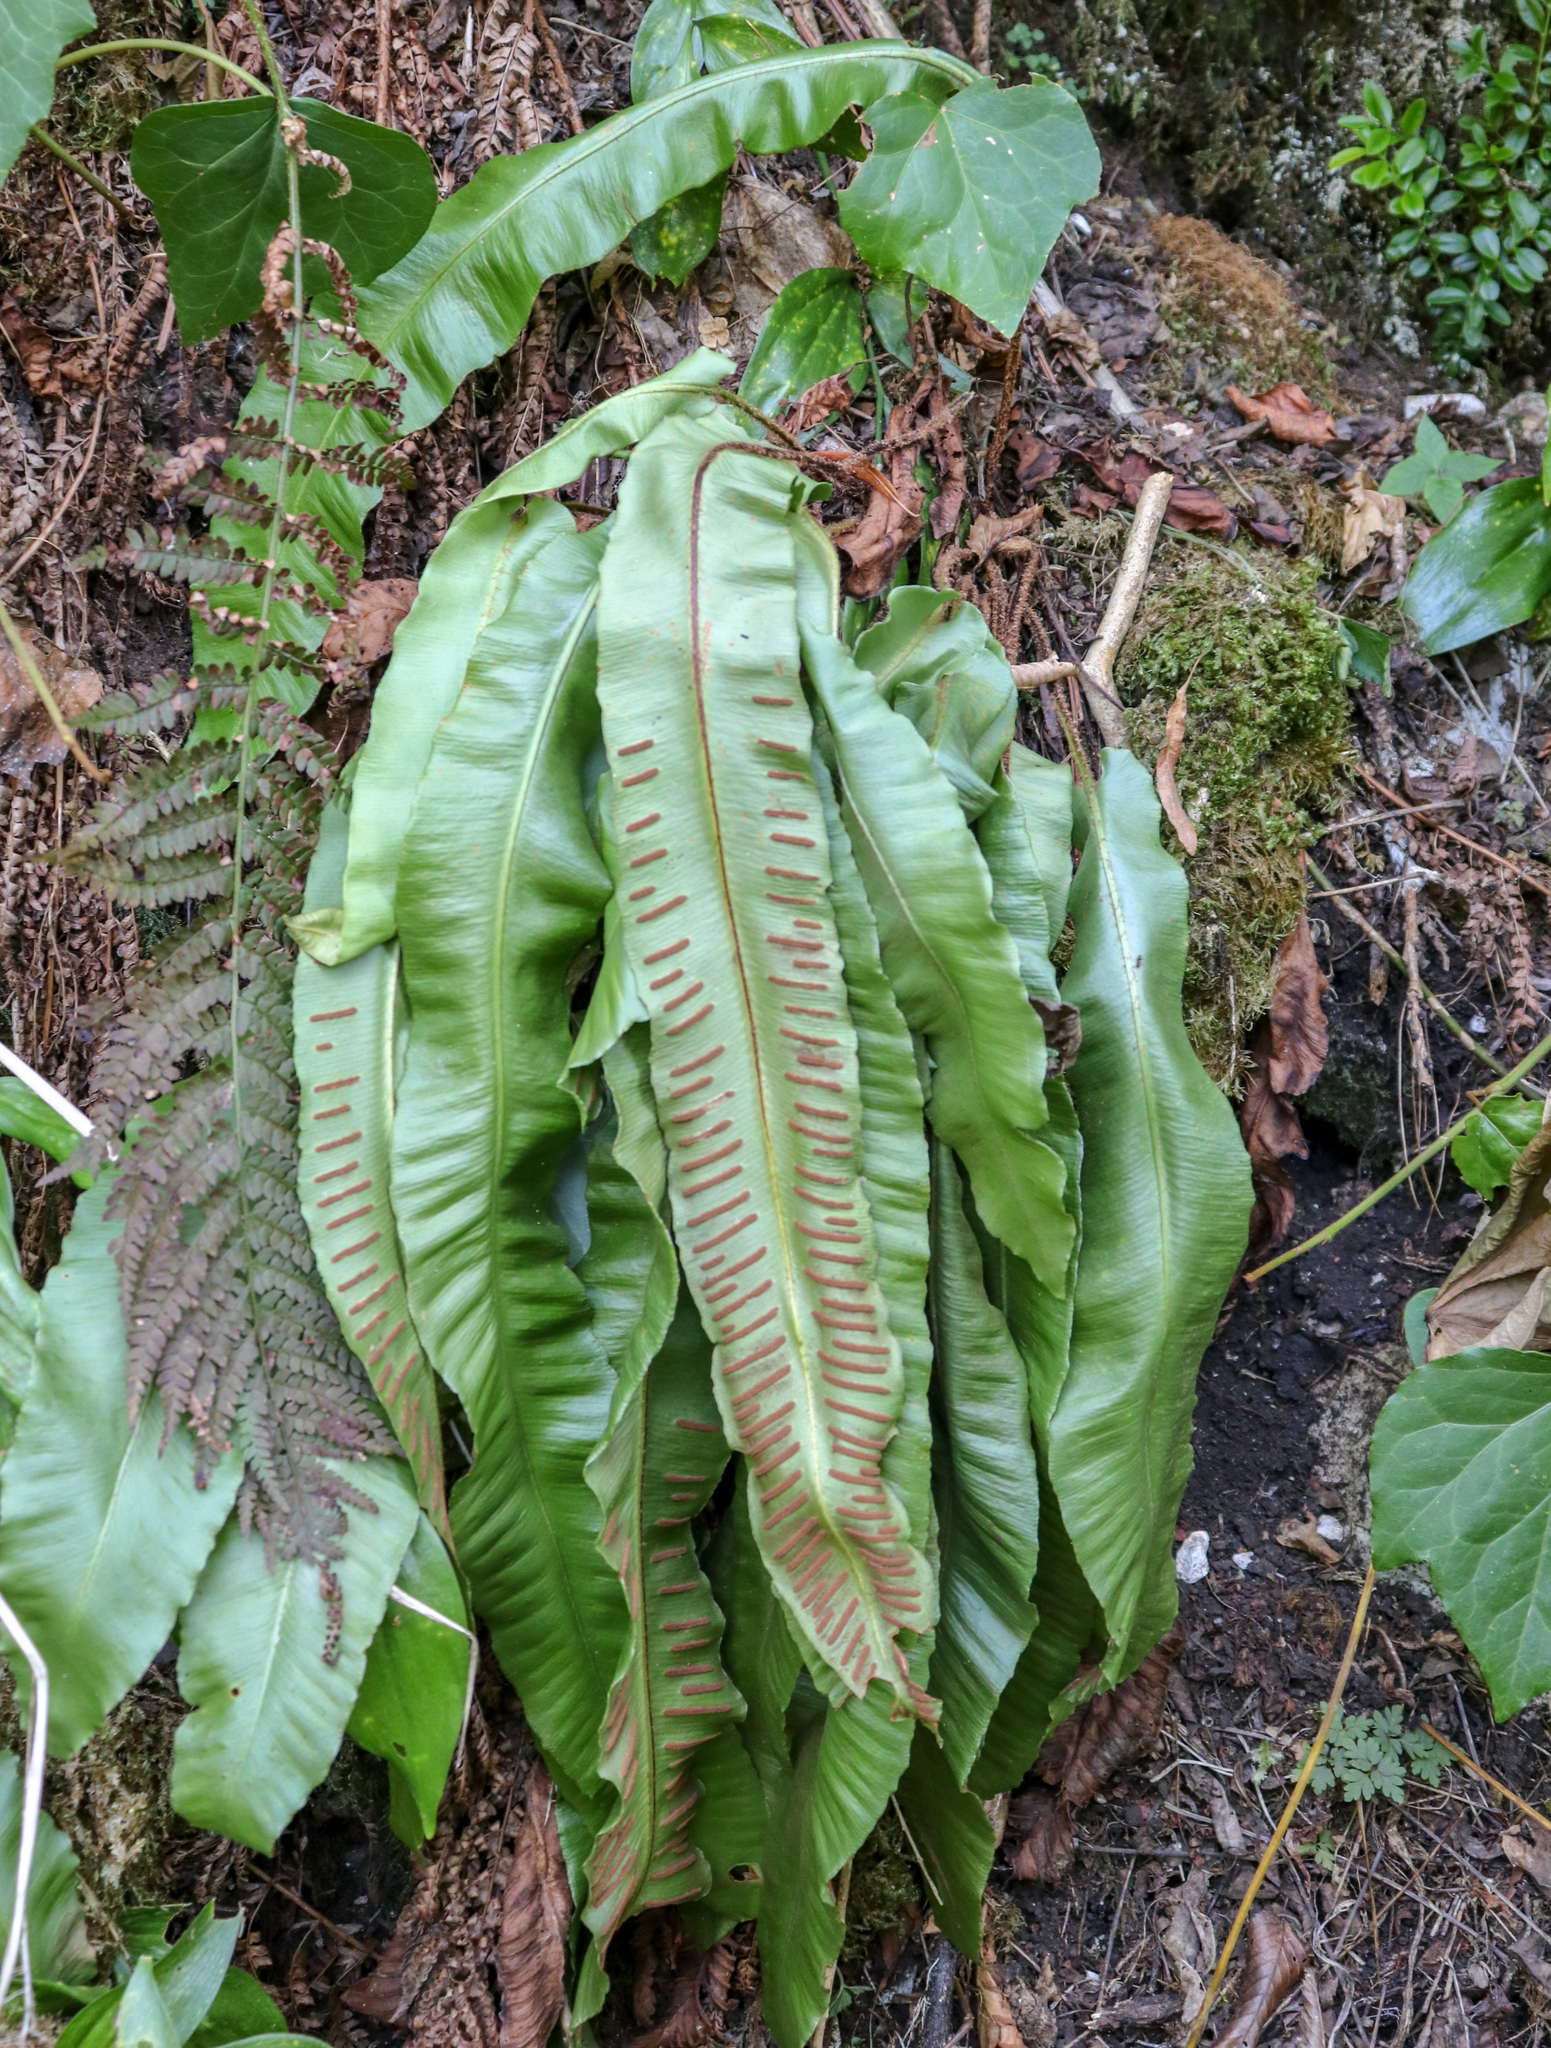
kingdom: Plantae
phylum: Tracheophyta
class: Polypodiopsida
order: Polypodiales
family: Aspleniaceae
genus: Asplenium
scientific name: Asplenium scolopendrium
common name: Hart's-tongue fern
